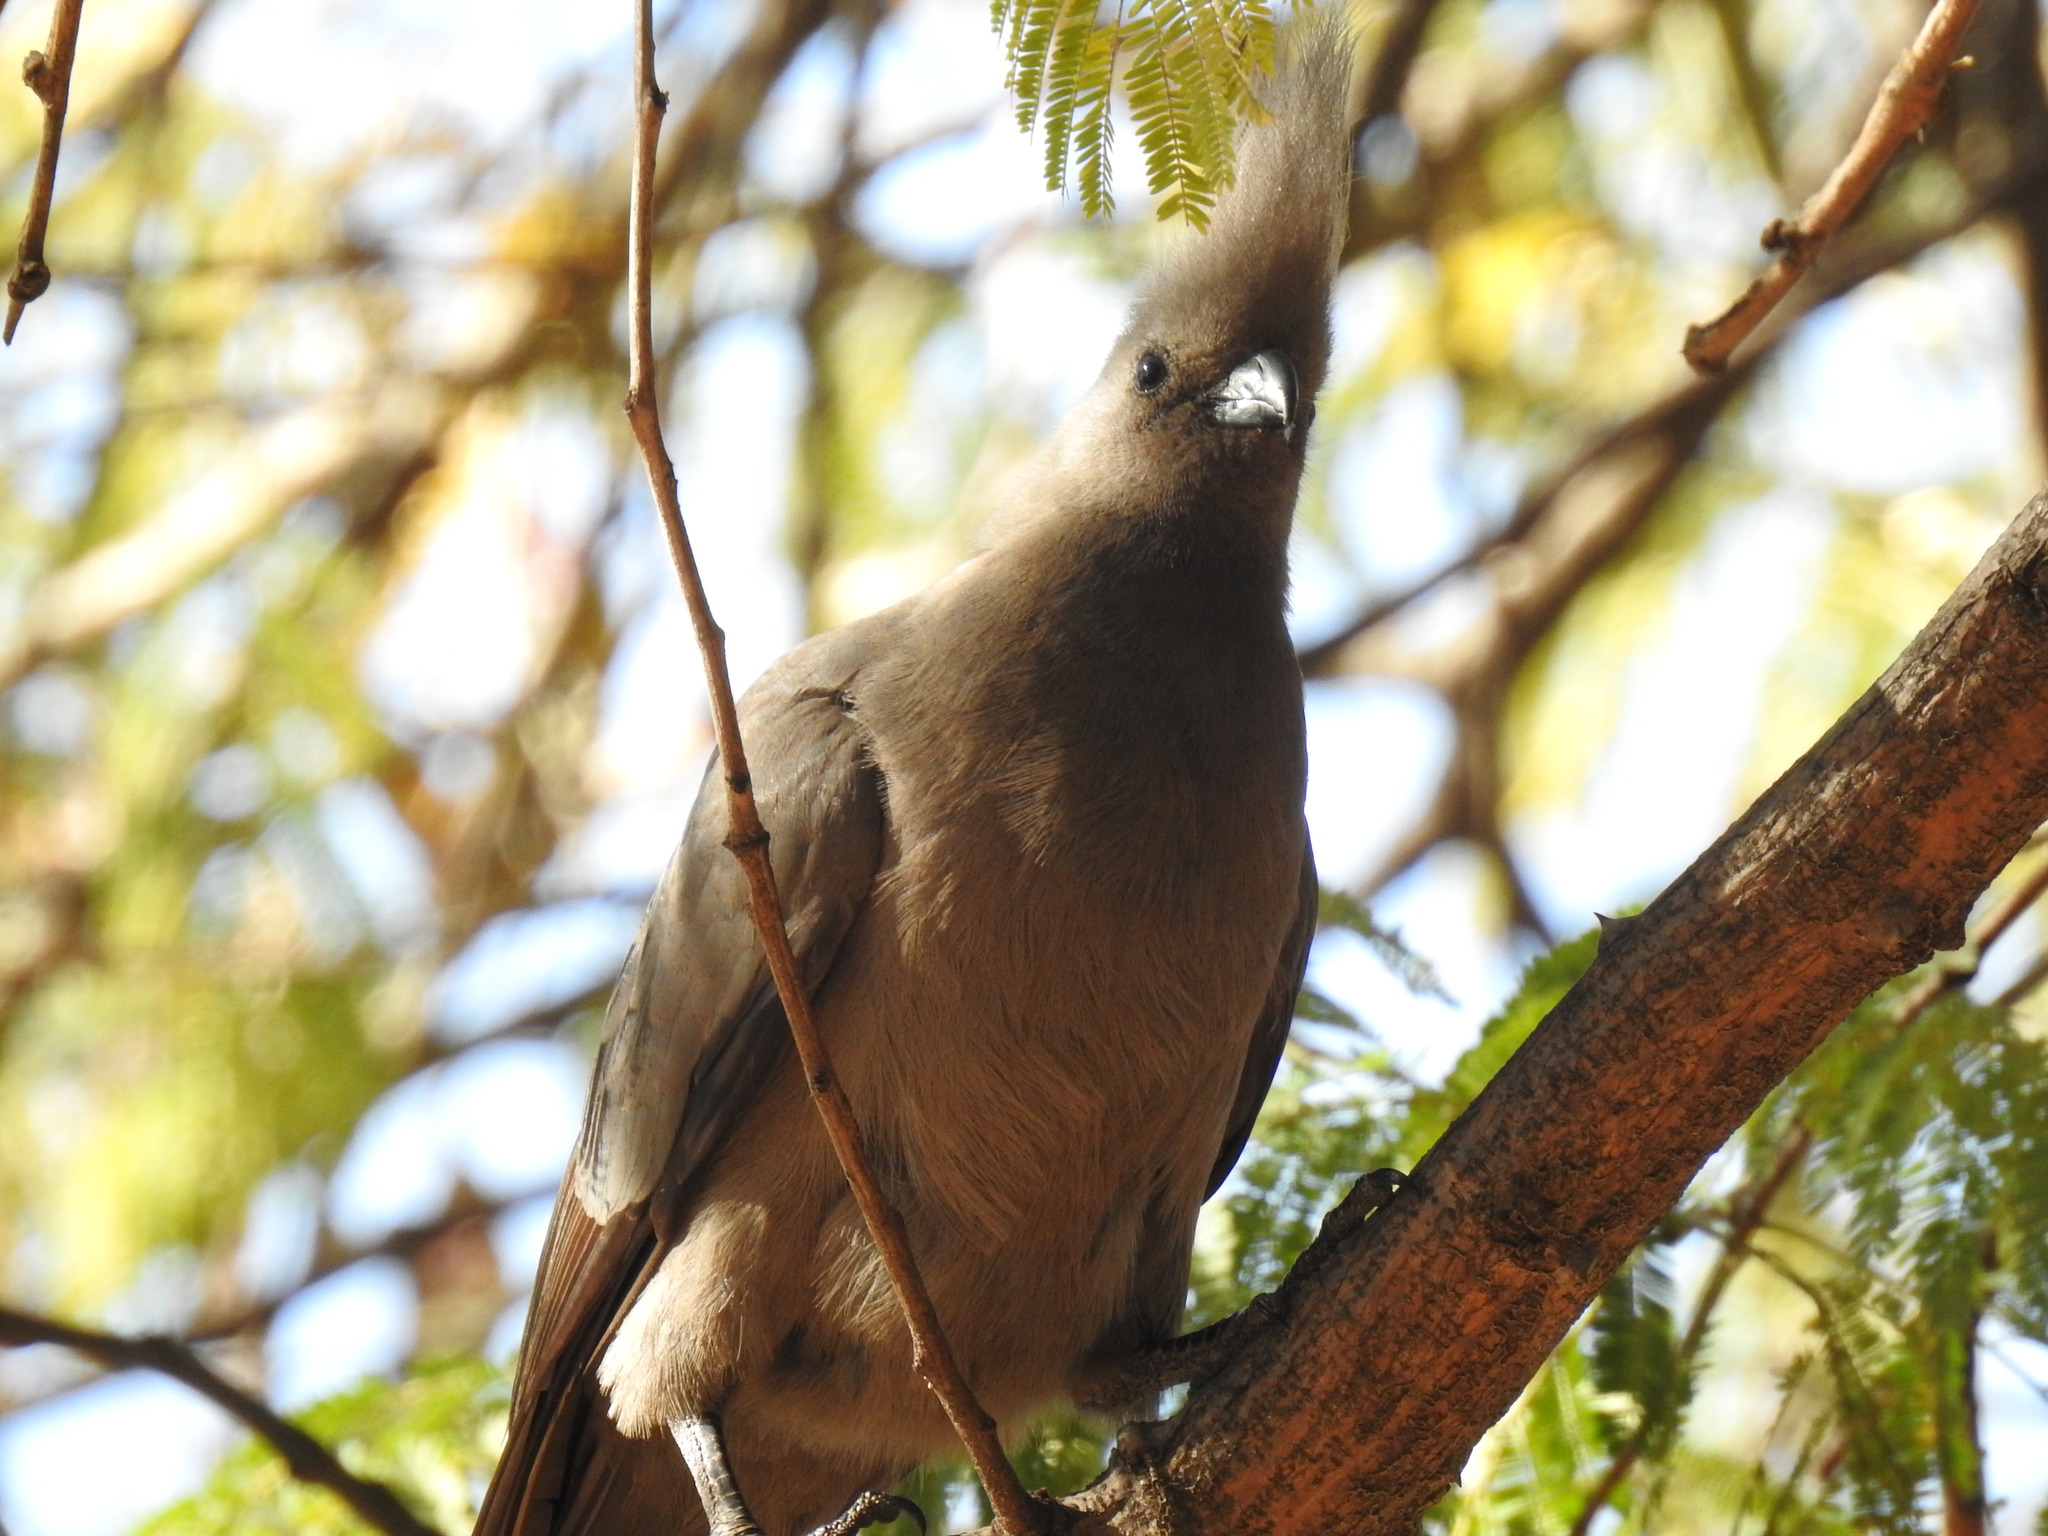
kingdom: Animalia
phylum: Chordata
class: Aves
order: Musophagiformes
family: Musophagidae
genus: Corythaixoides
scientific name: Corythaixoides concolor
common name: Grey go-away-bird
